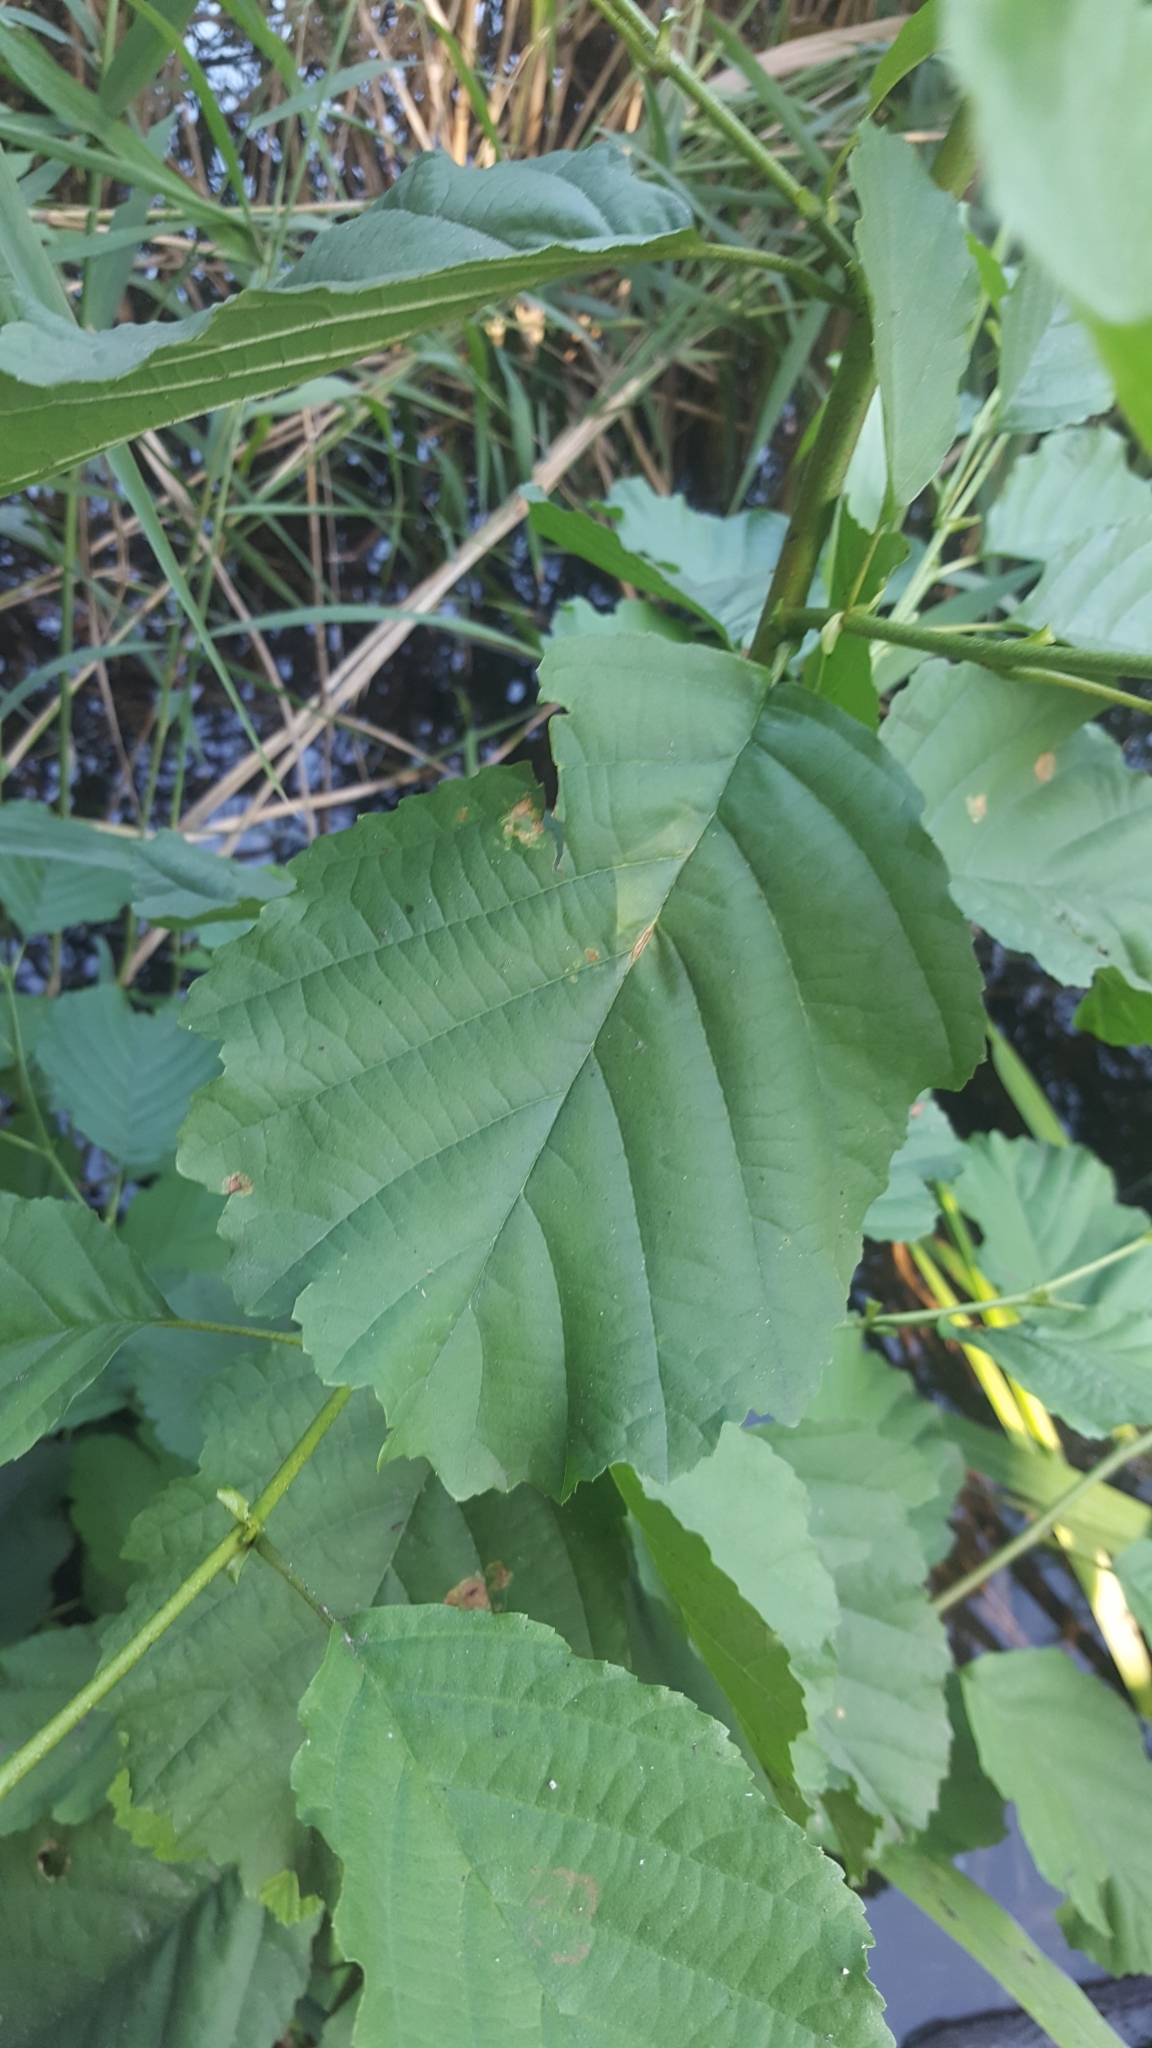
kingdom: Plantae
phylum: Tracheophyta
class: Magnoliopsida
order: Fagales
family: Betulaceae
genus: Alnus
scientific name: Alnus glutinosa
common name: Black alder
